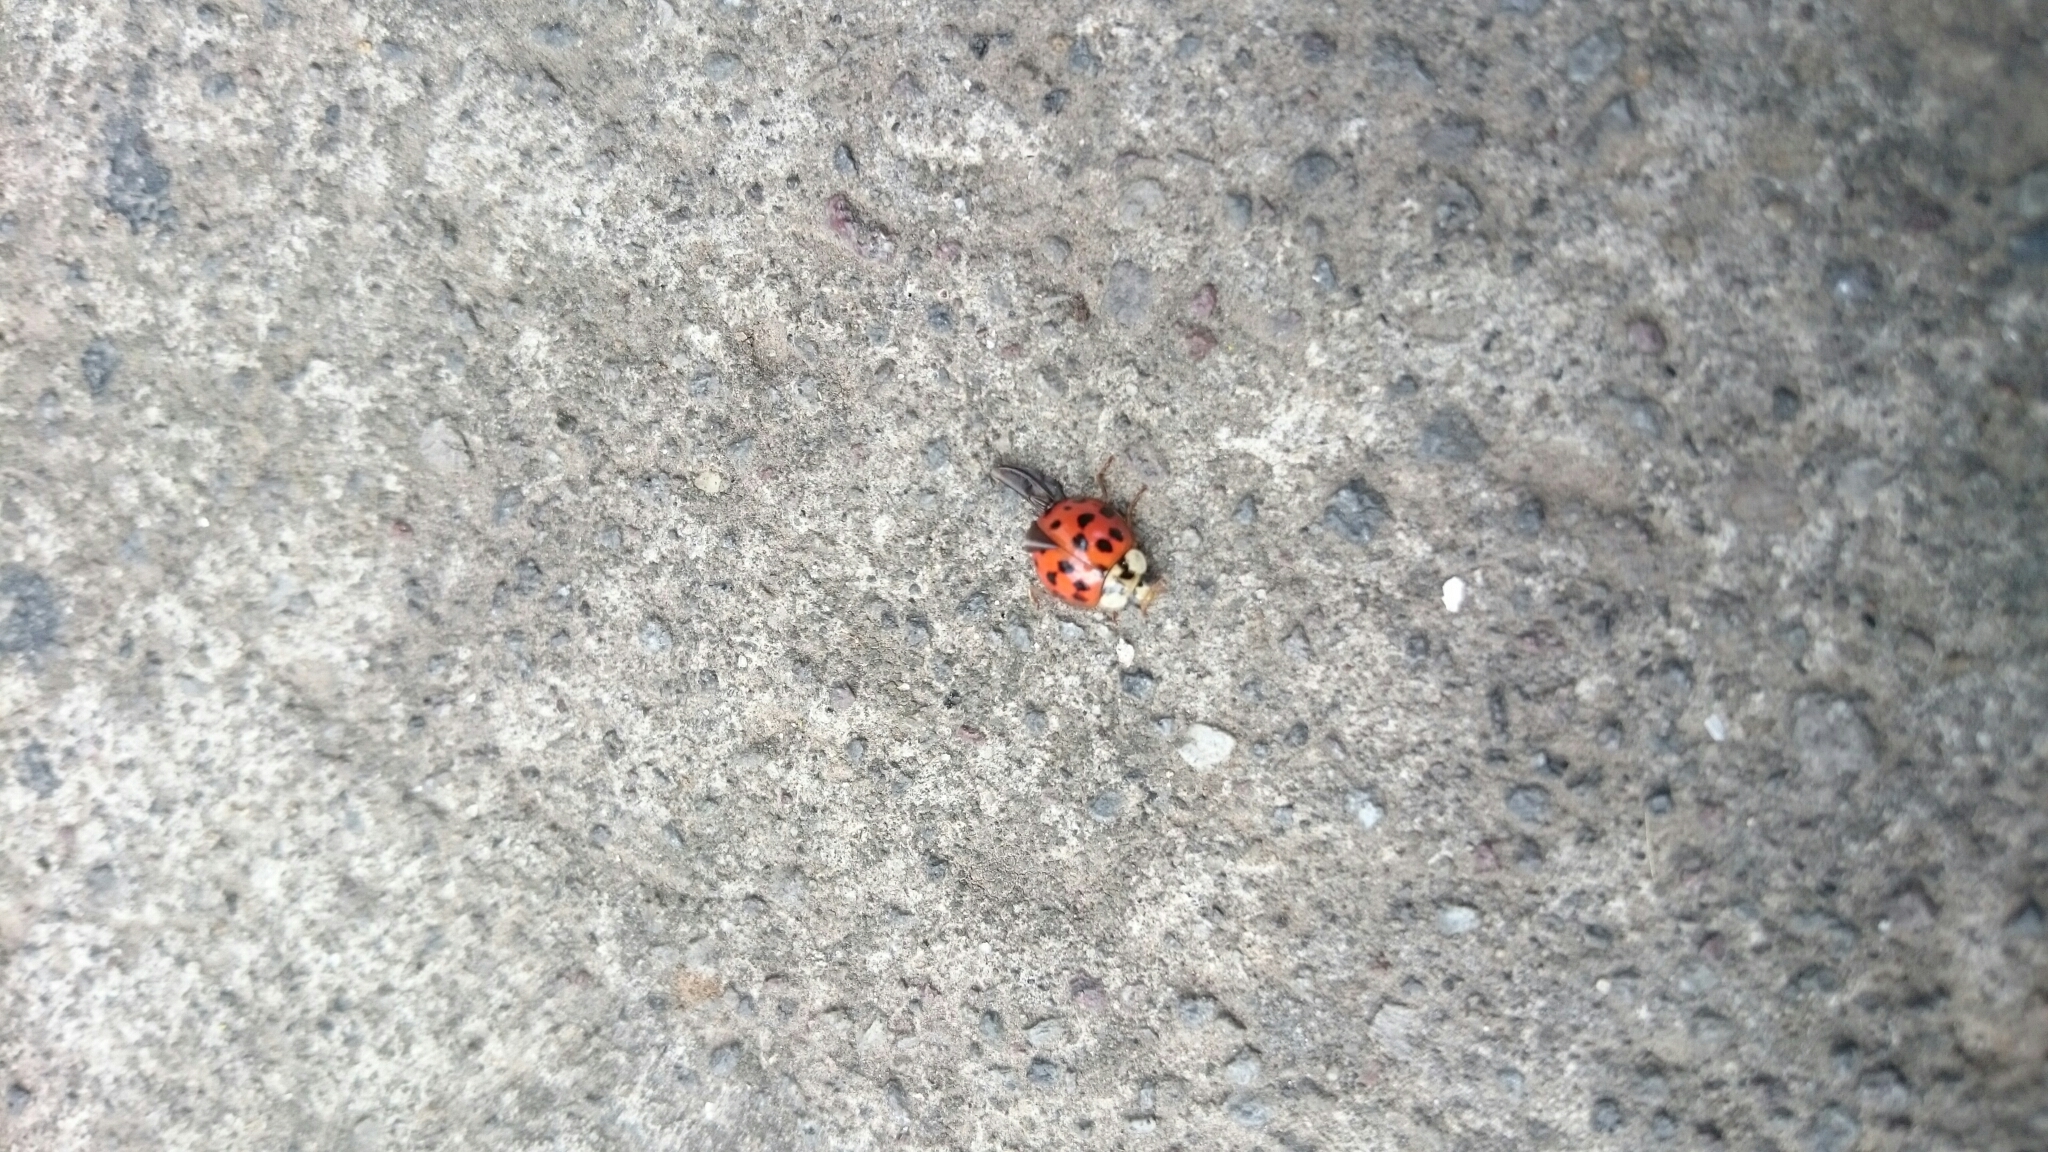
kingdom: Animalia
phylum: Arthropoda
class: Insecta
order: Coleoptera
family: Coccinellidae
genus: Harmonia
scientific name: Harmonia axyridis
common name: Harlequin ladybird
